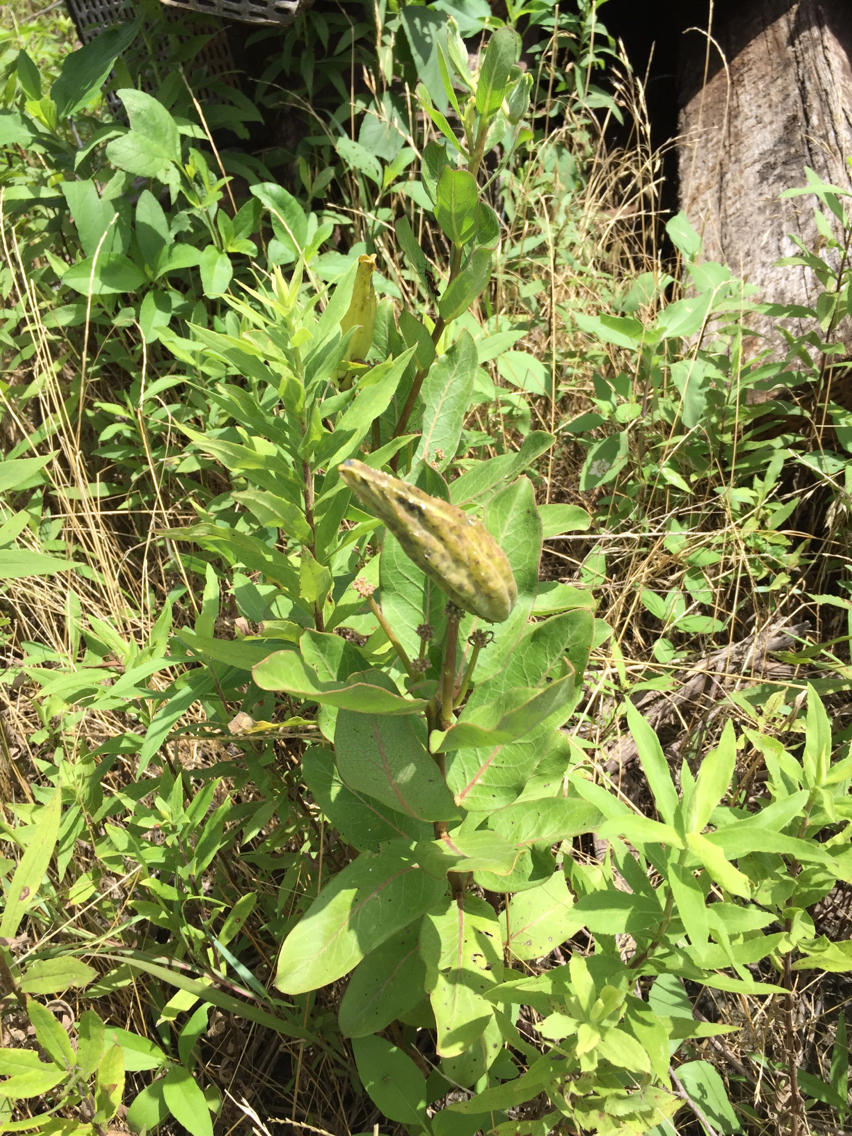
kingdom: Plantae
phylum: Tracheophyta
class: Magnoliopsida
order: Gentianales
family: Apocynaceae
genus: Asclepias
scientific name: Asclepias viridis
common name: Antelope-horns
